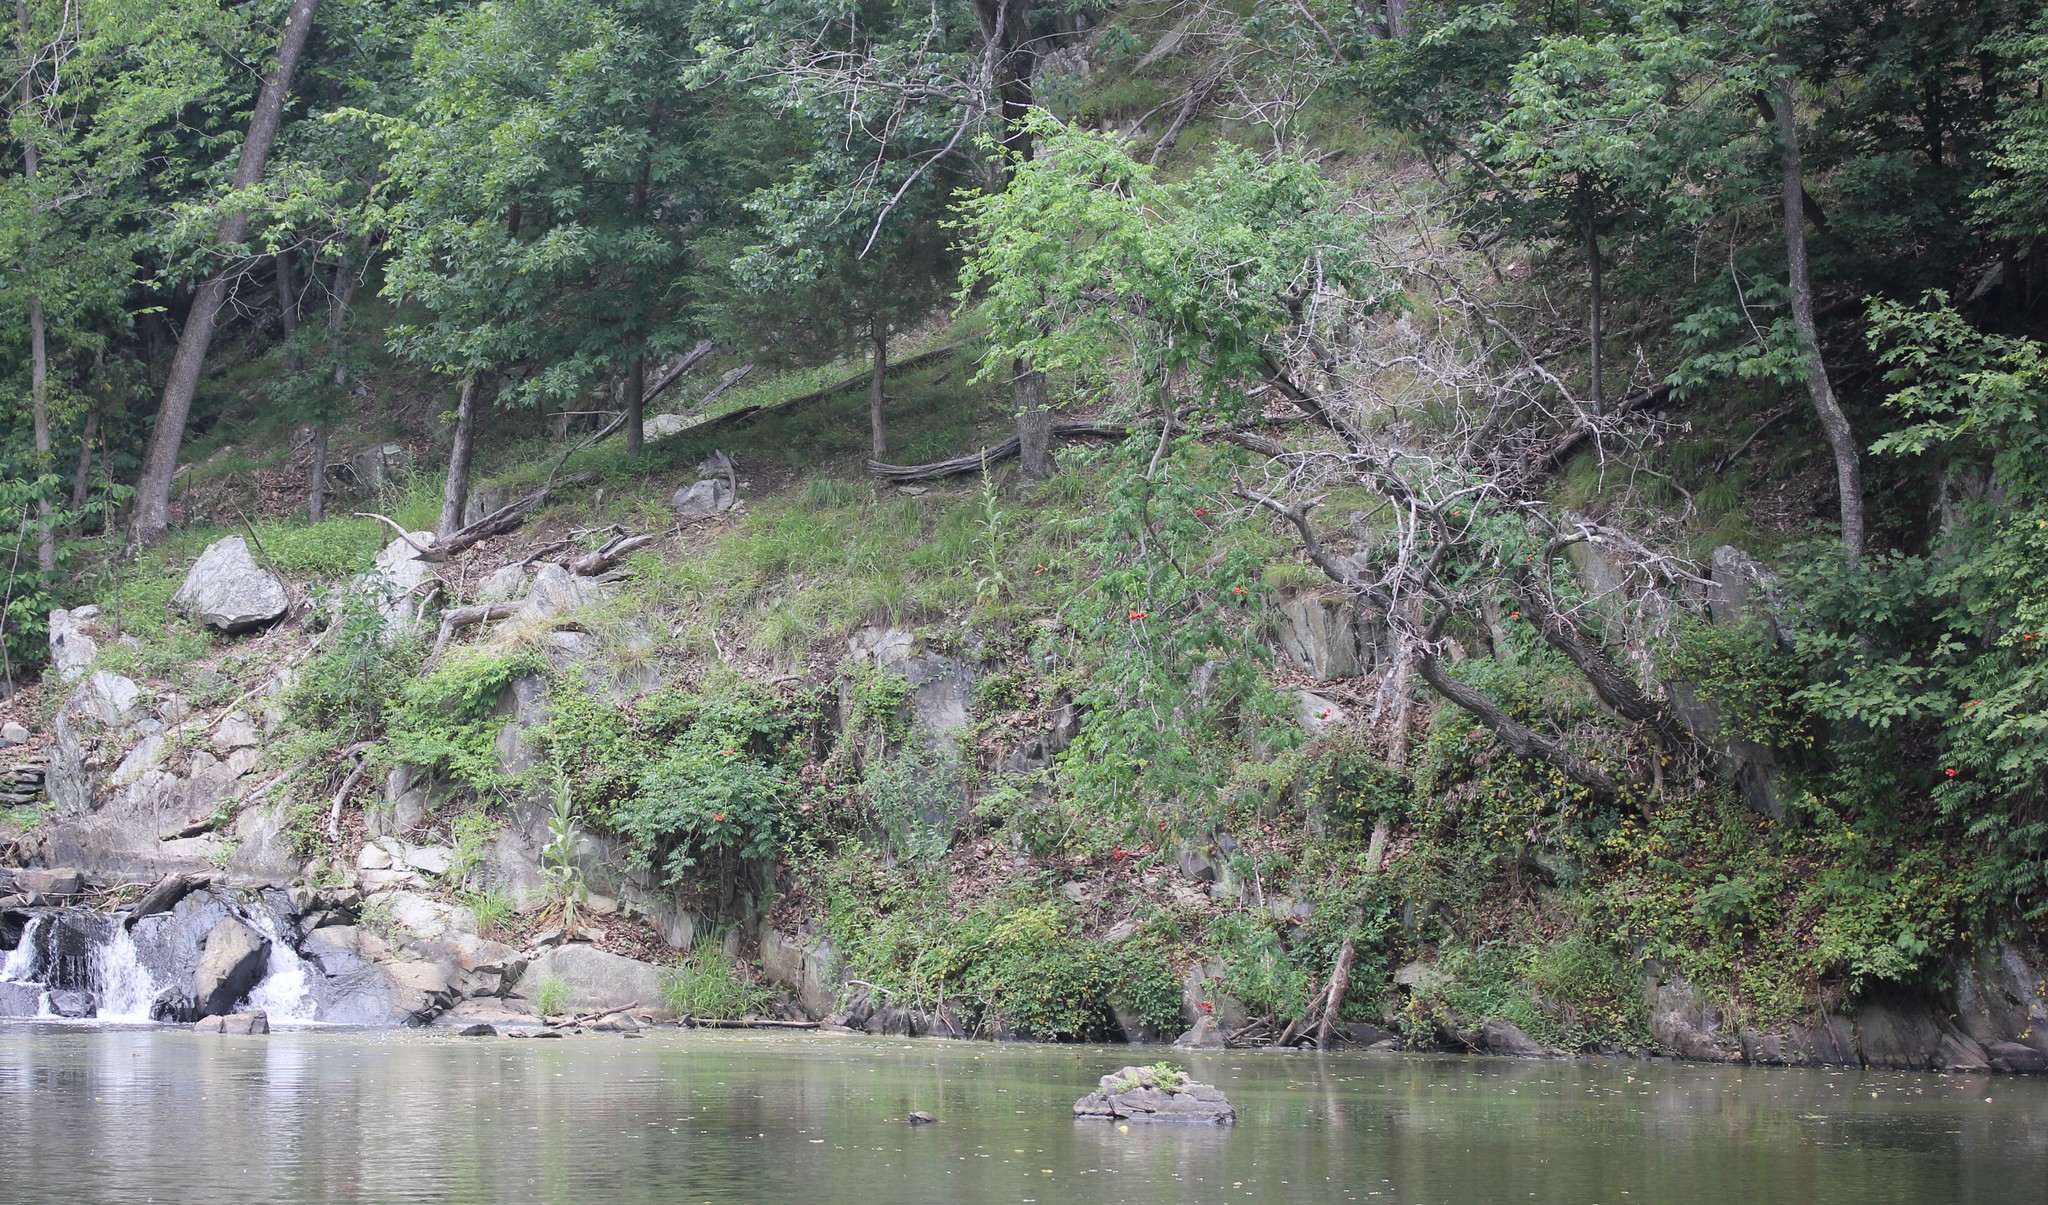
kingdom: Plantae
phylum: Tracheophyta
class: Magnoliopsida
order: Lamiales
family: Bignoniaceae
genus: Campsis
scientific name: Campsis radicans
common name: Trumpet-creeper
